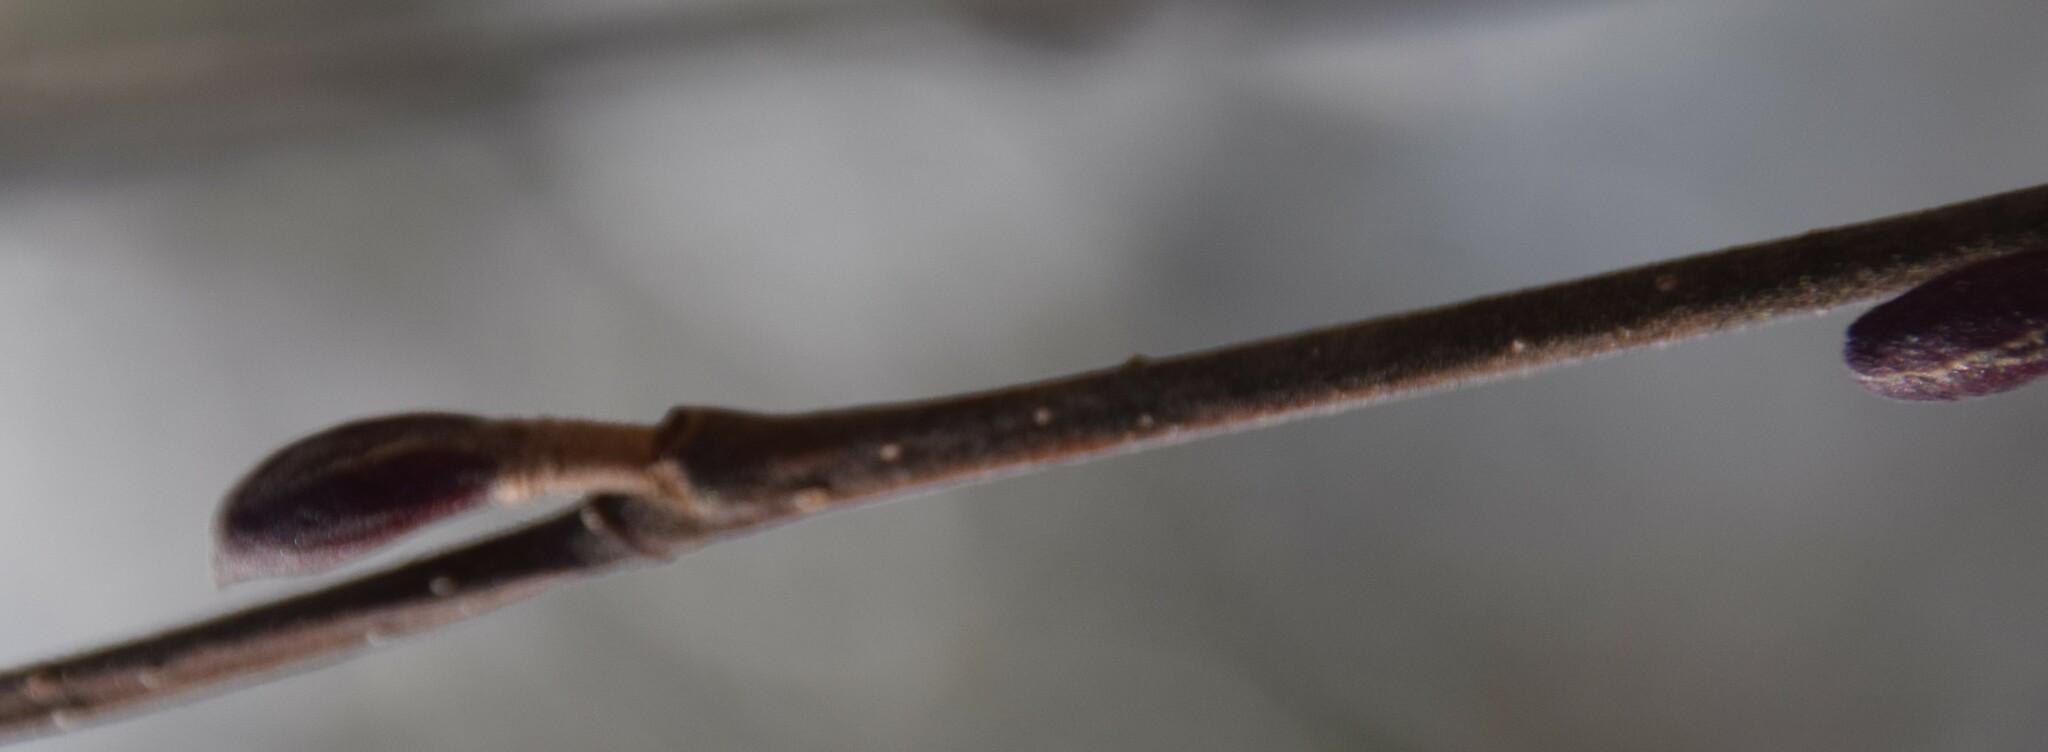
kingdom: Plantae
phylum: Tracheophyta
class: Magnoliopsida
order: Fagales
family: Betulaceae
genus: Alnus
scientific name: Alnus incana
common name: Grey alder
